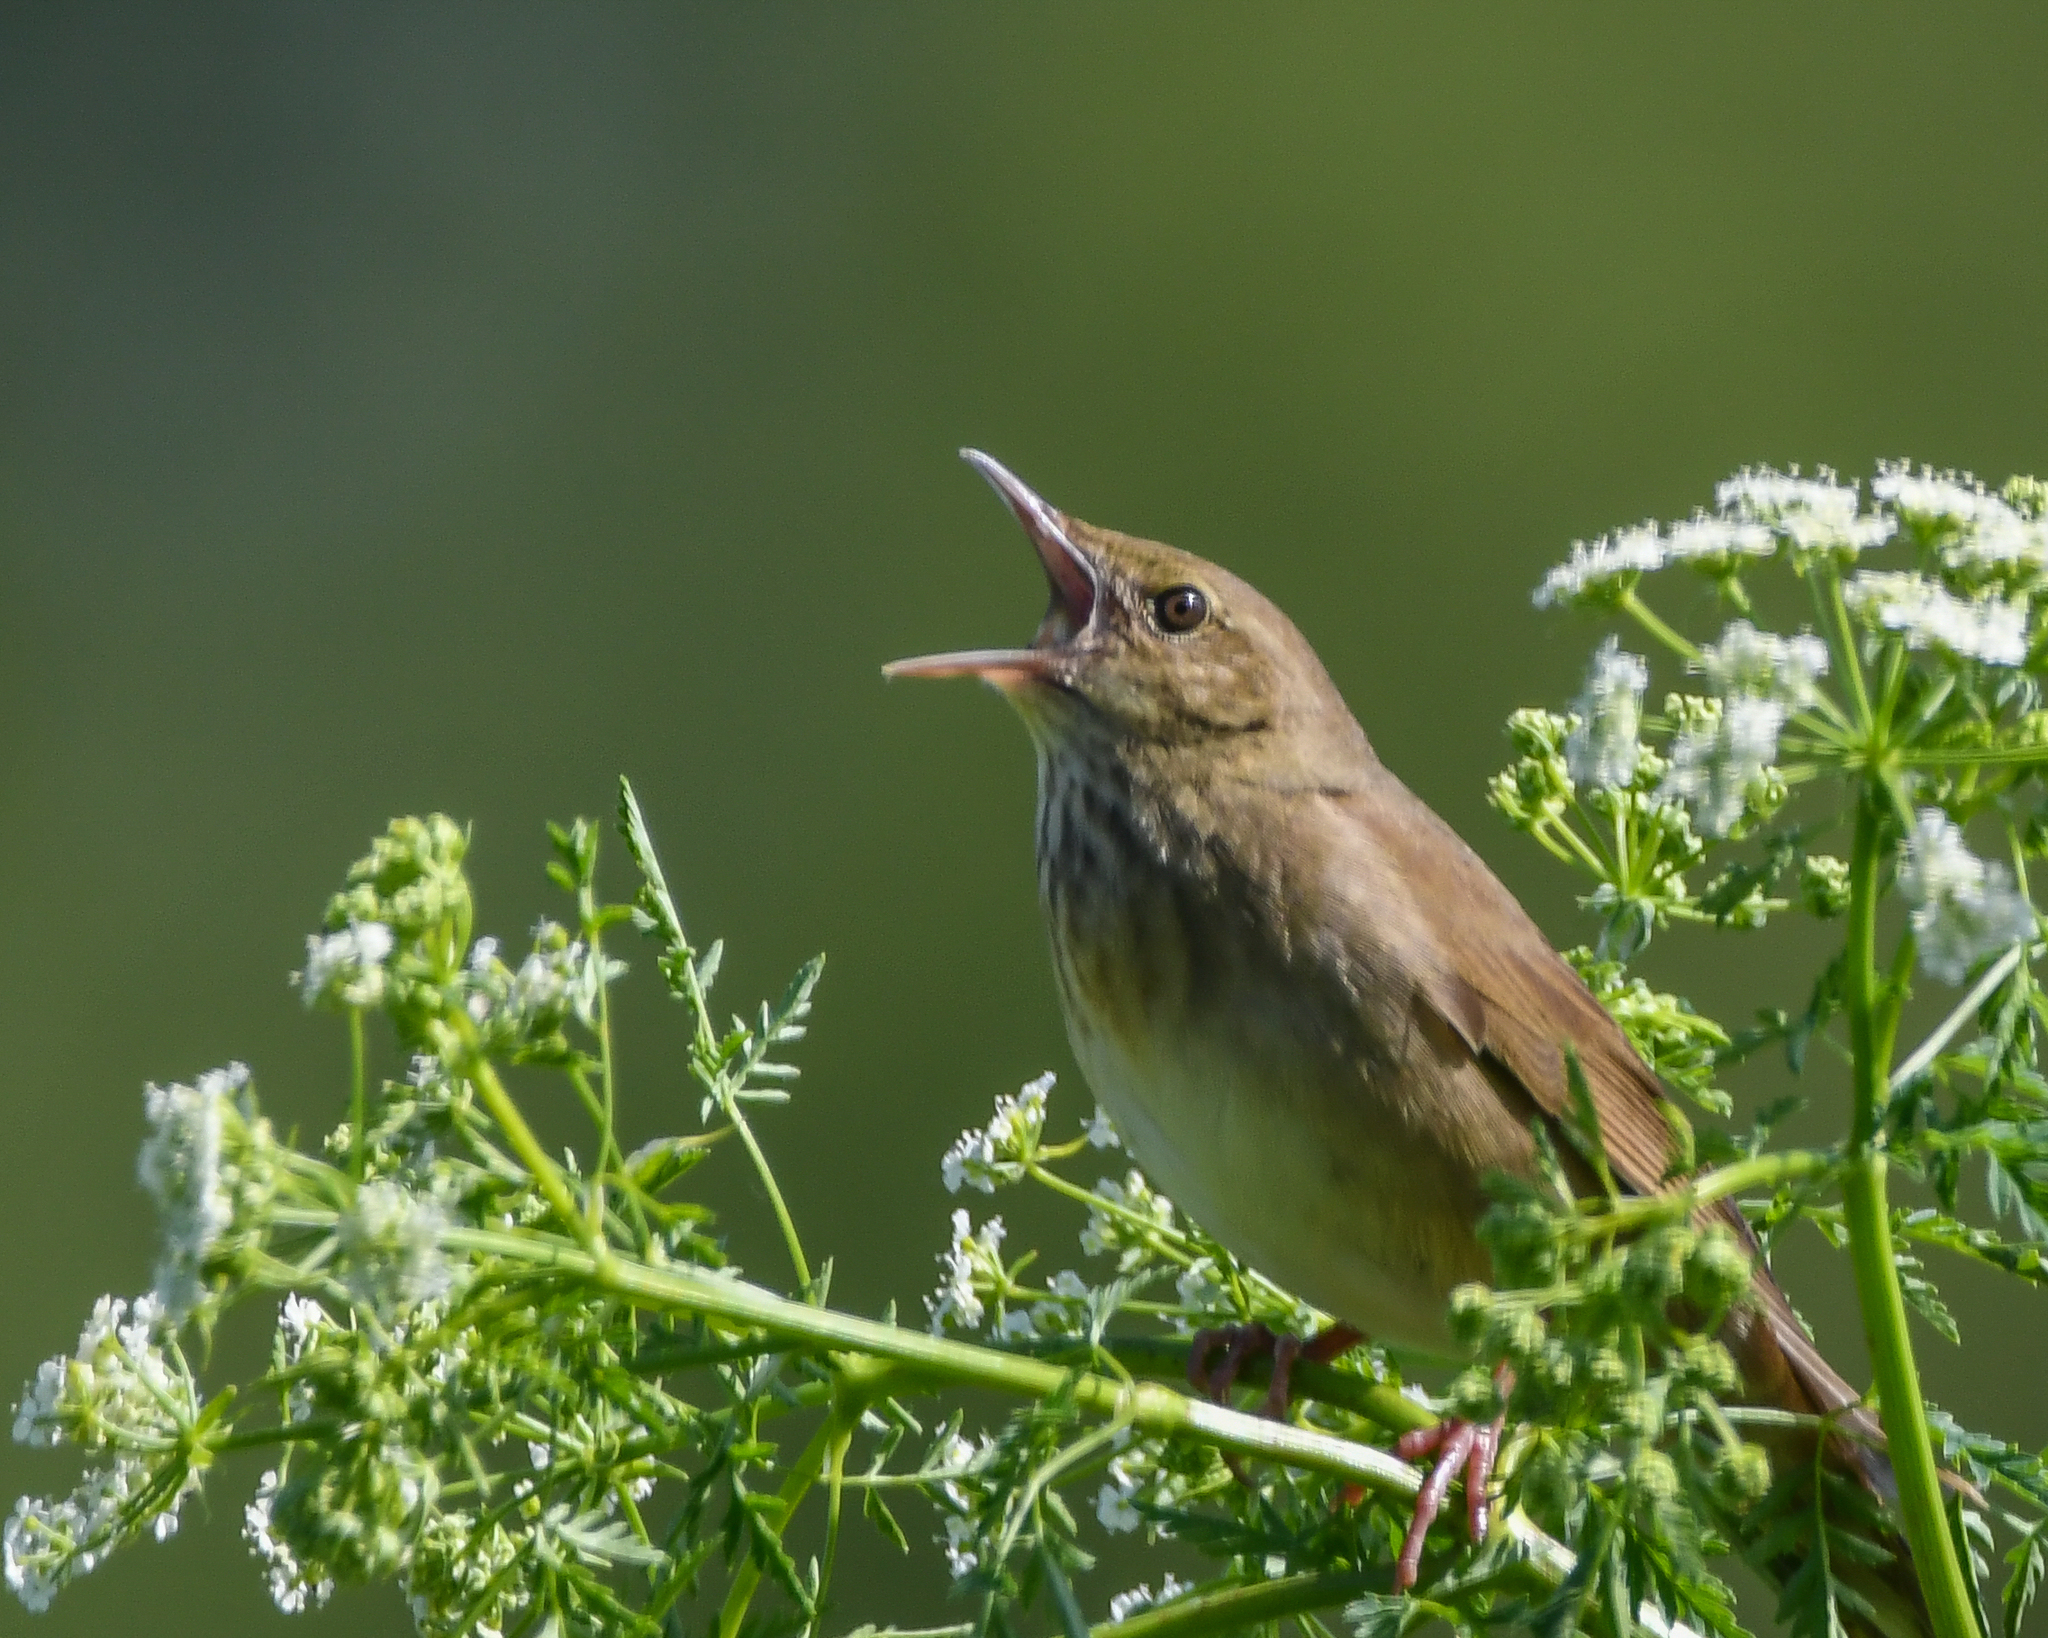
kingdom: Animalia
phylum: Chordata
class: Aves
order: Passeriformes
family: Locustellidae
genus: Locustella
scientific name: Locustella fluviatilis
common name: River warbler
